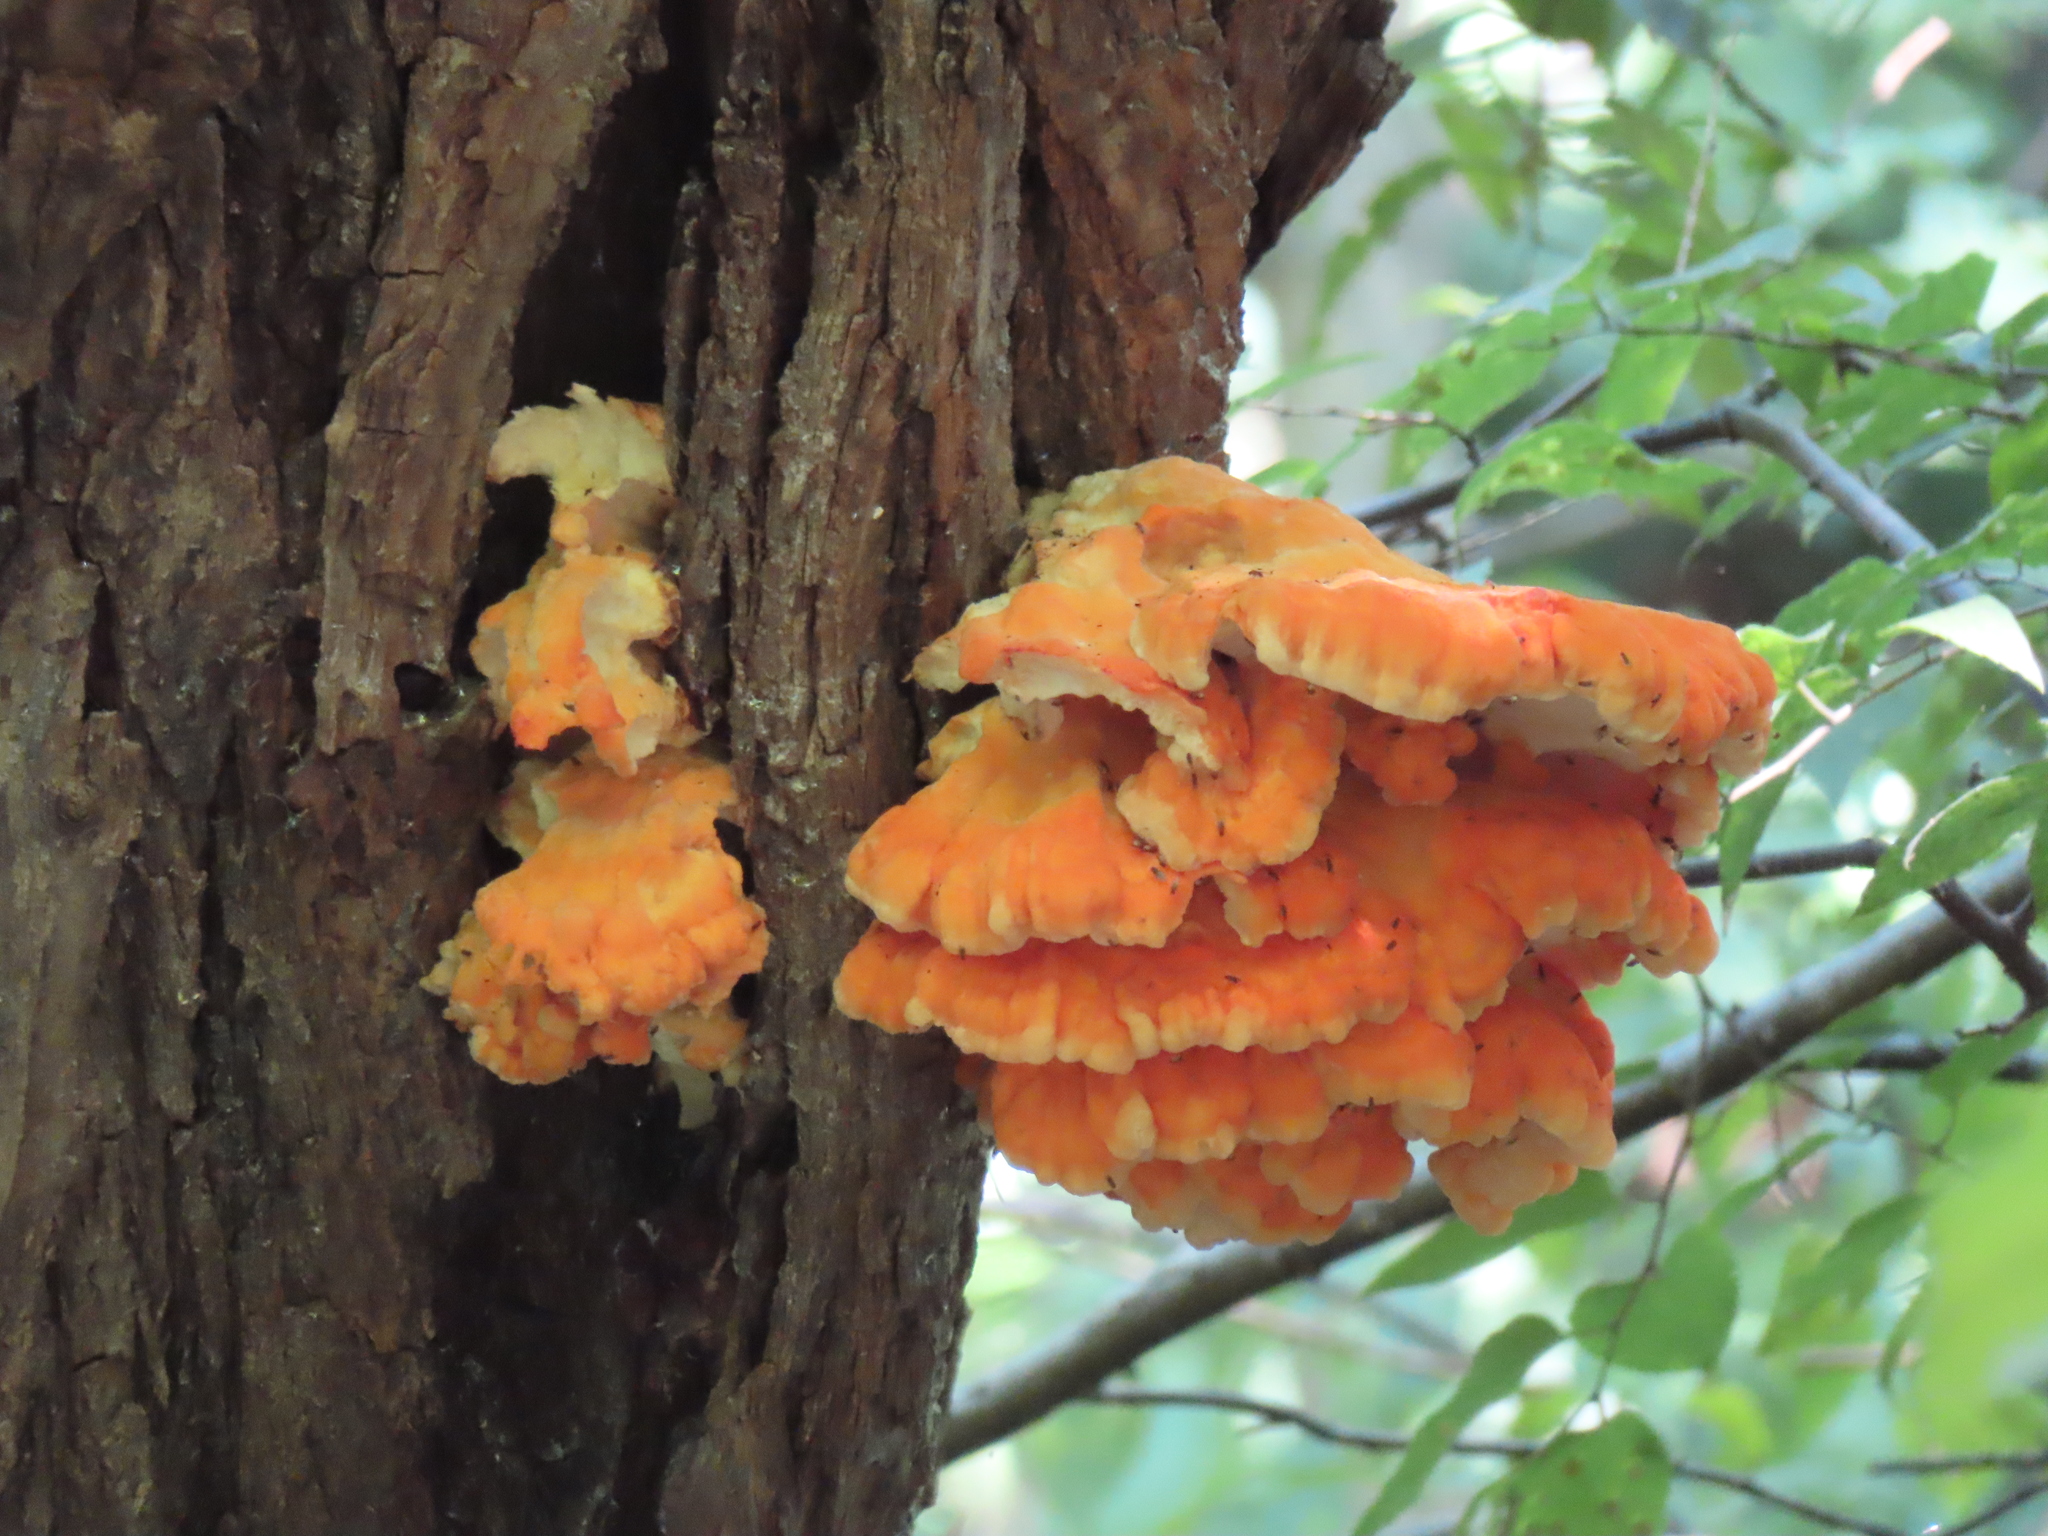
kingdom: Fungi
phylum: Basidiomycota
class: Agaricomycetes
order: Polyporales
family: Laetiporaceae
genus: Laetiporus
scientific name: Laetiporus sulphureus
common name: Chicken of the woods
